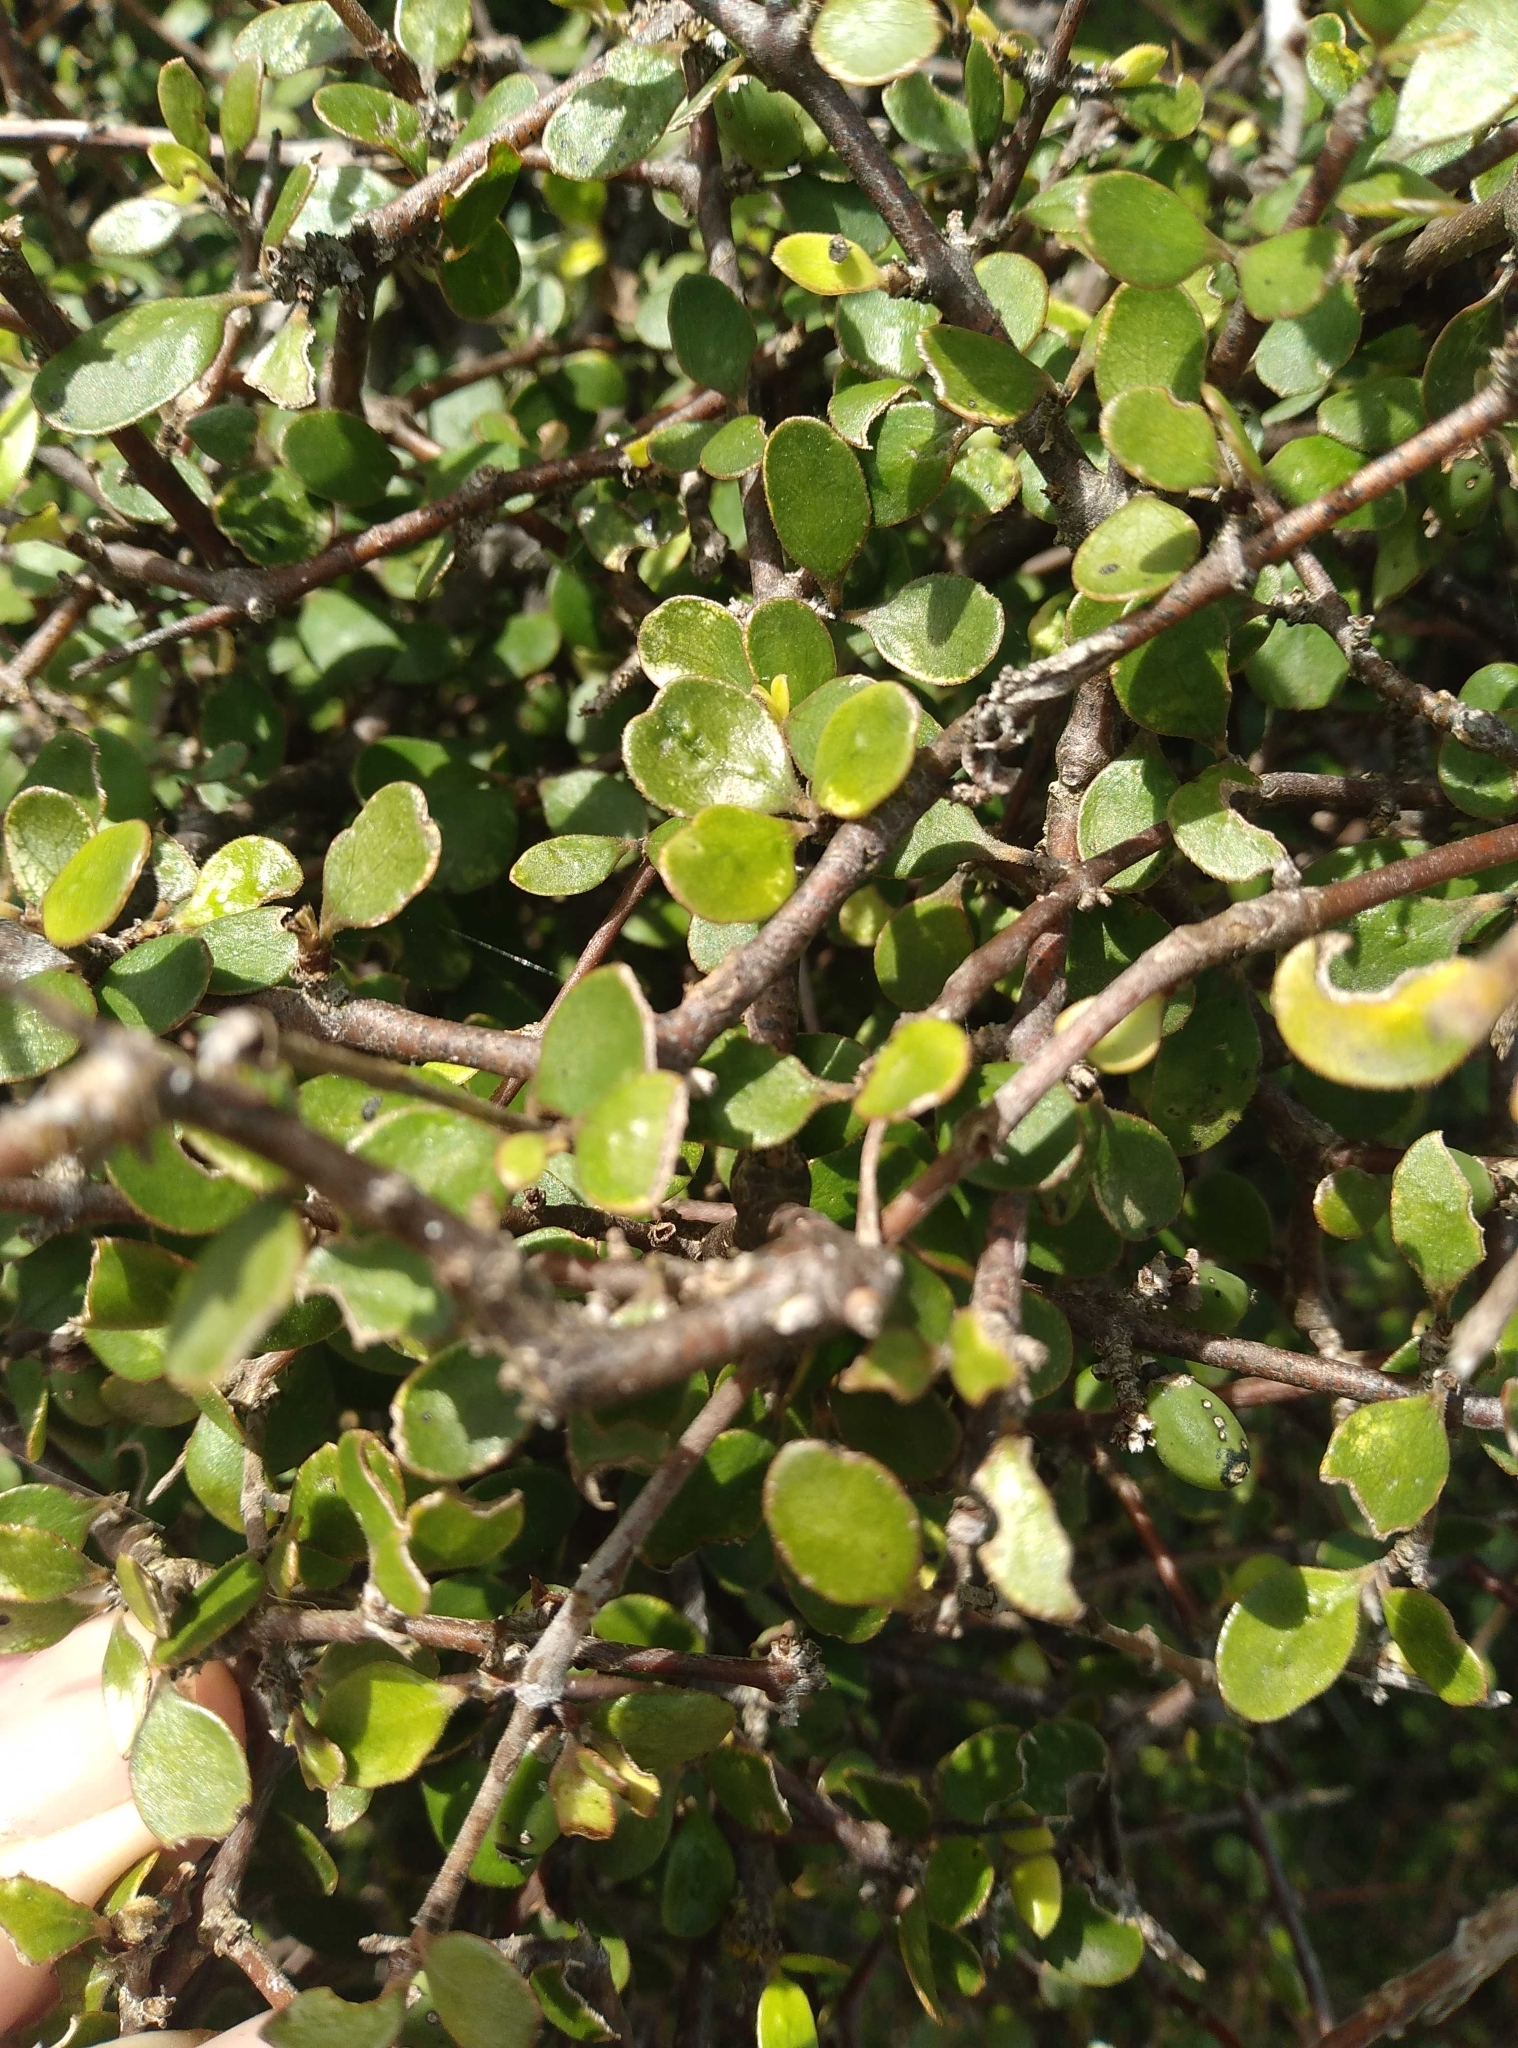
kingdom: Plantae
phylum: Tracheophyta
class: Magnoliopsida
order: Gentianales
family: Rubiaceae
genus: Coprosma
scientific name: Coprosma crassifolia
